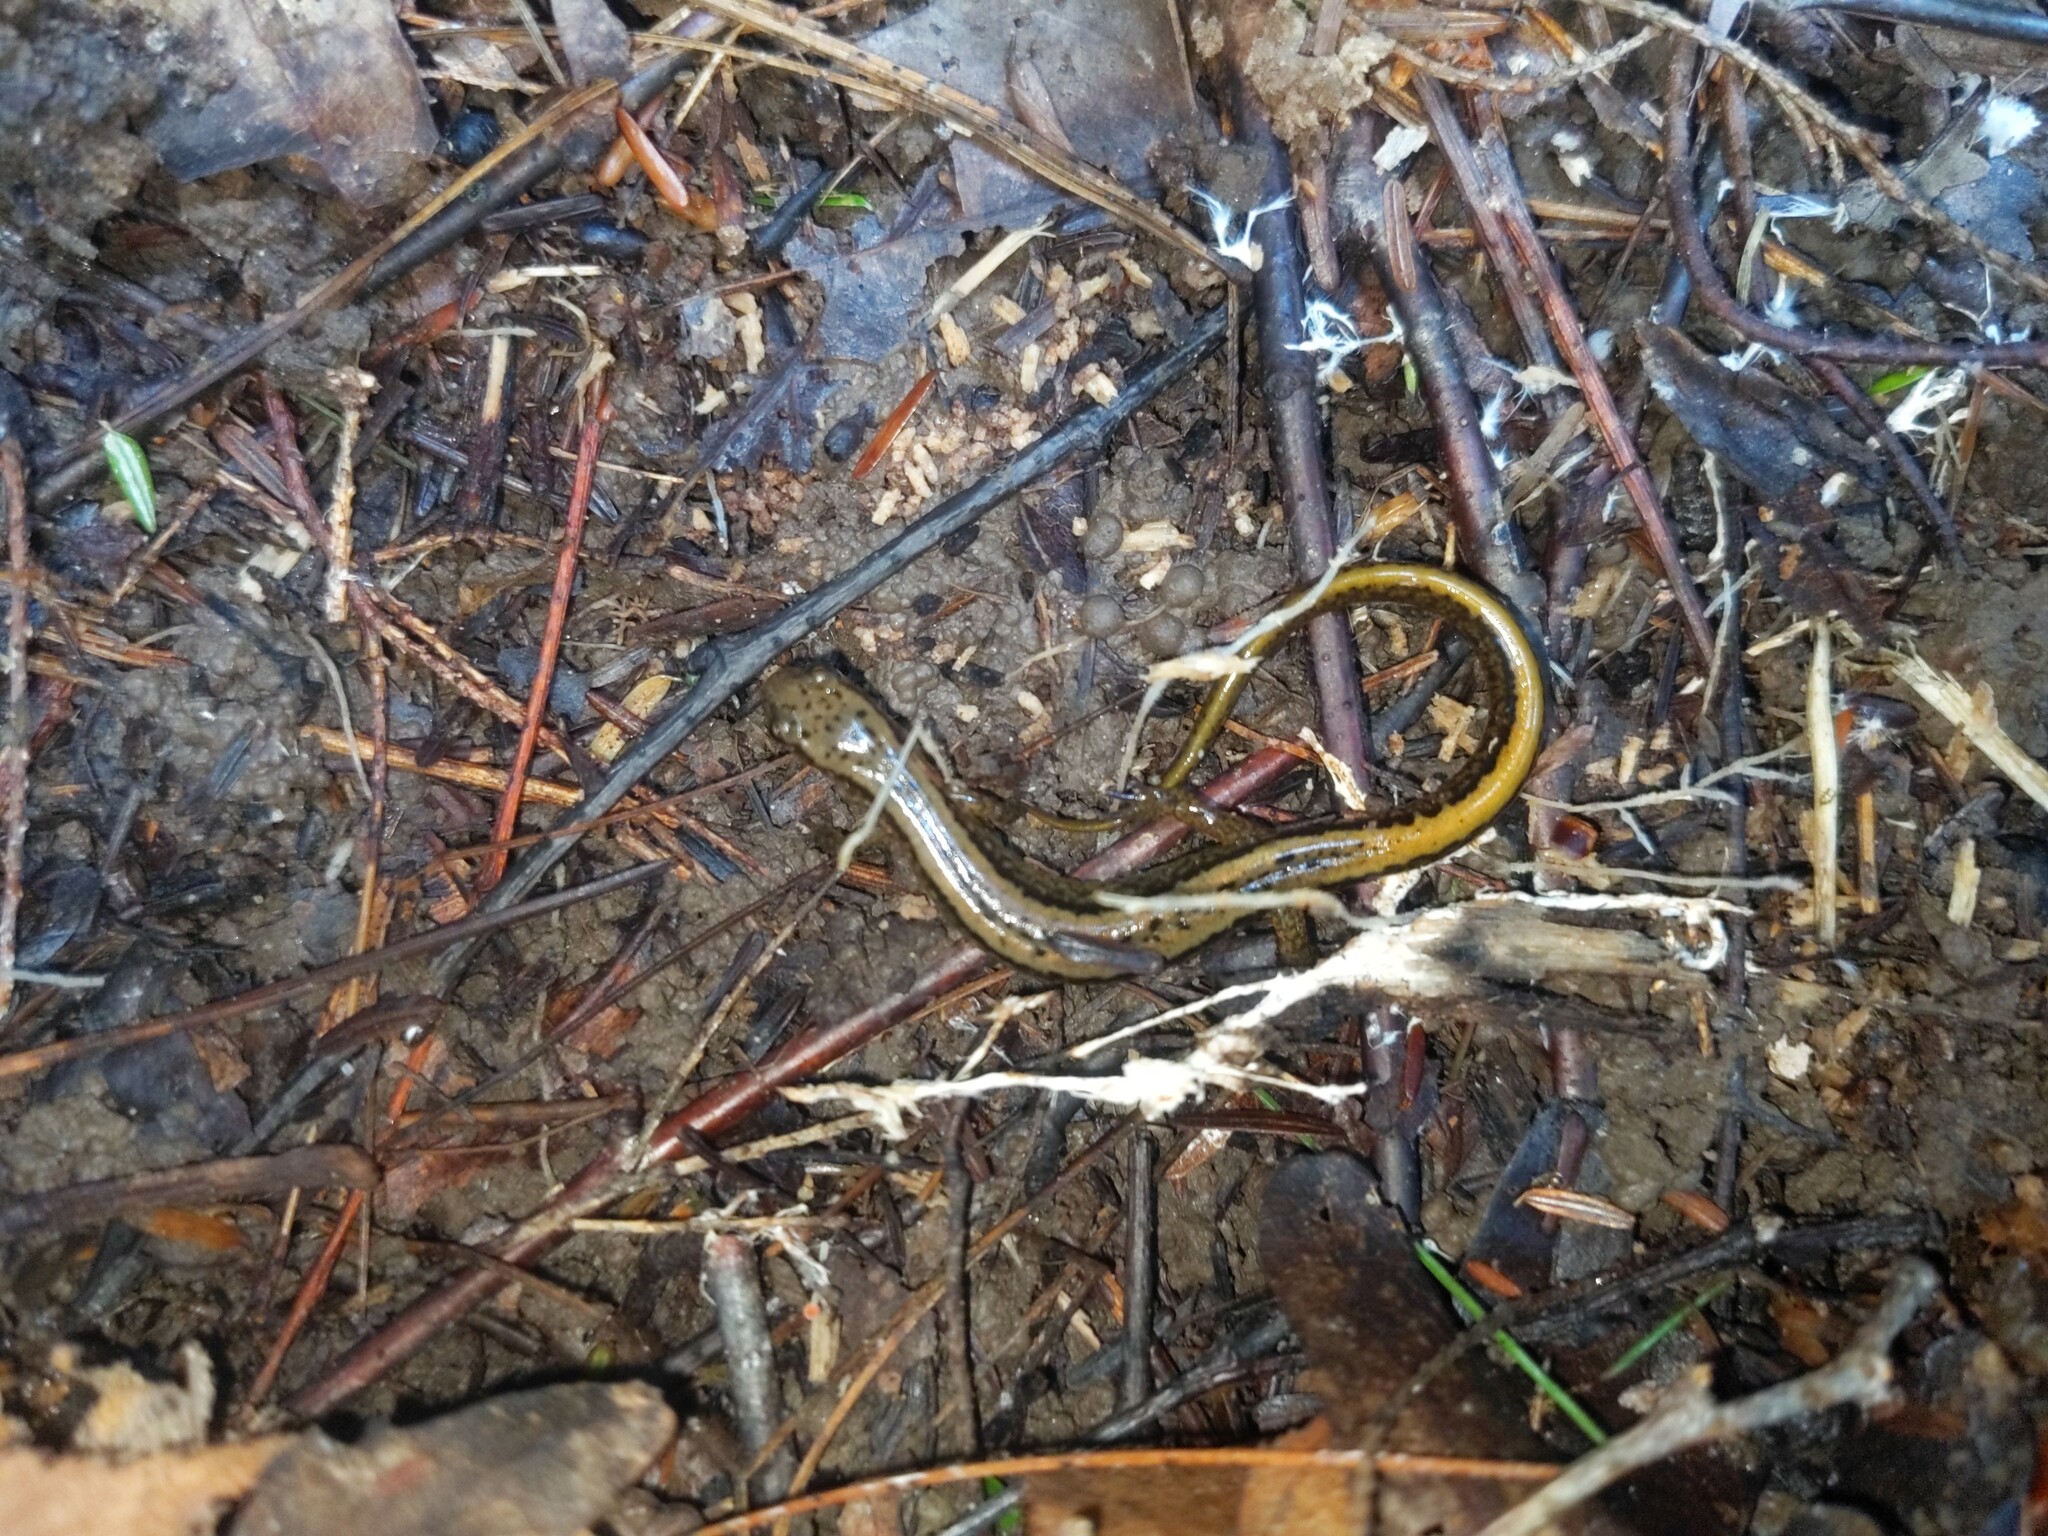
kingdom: Animalia
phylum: Chordata
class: Amphibia
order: Caudata
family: Plethodontidae
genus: Eurycea
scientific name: Eurycea bislineata
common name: Northern two-lined salamander
